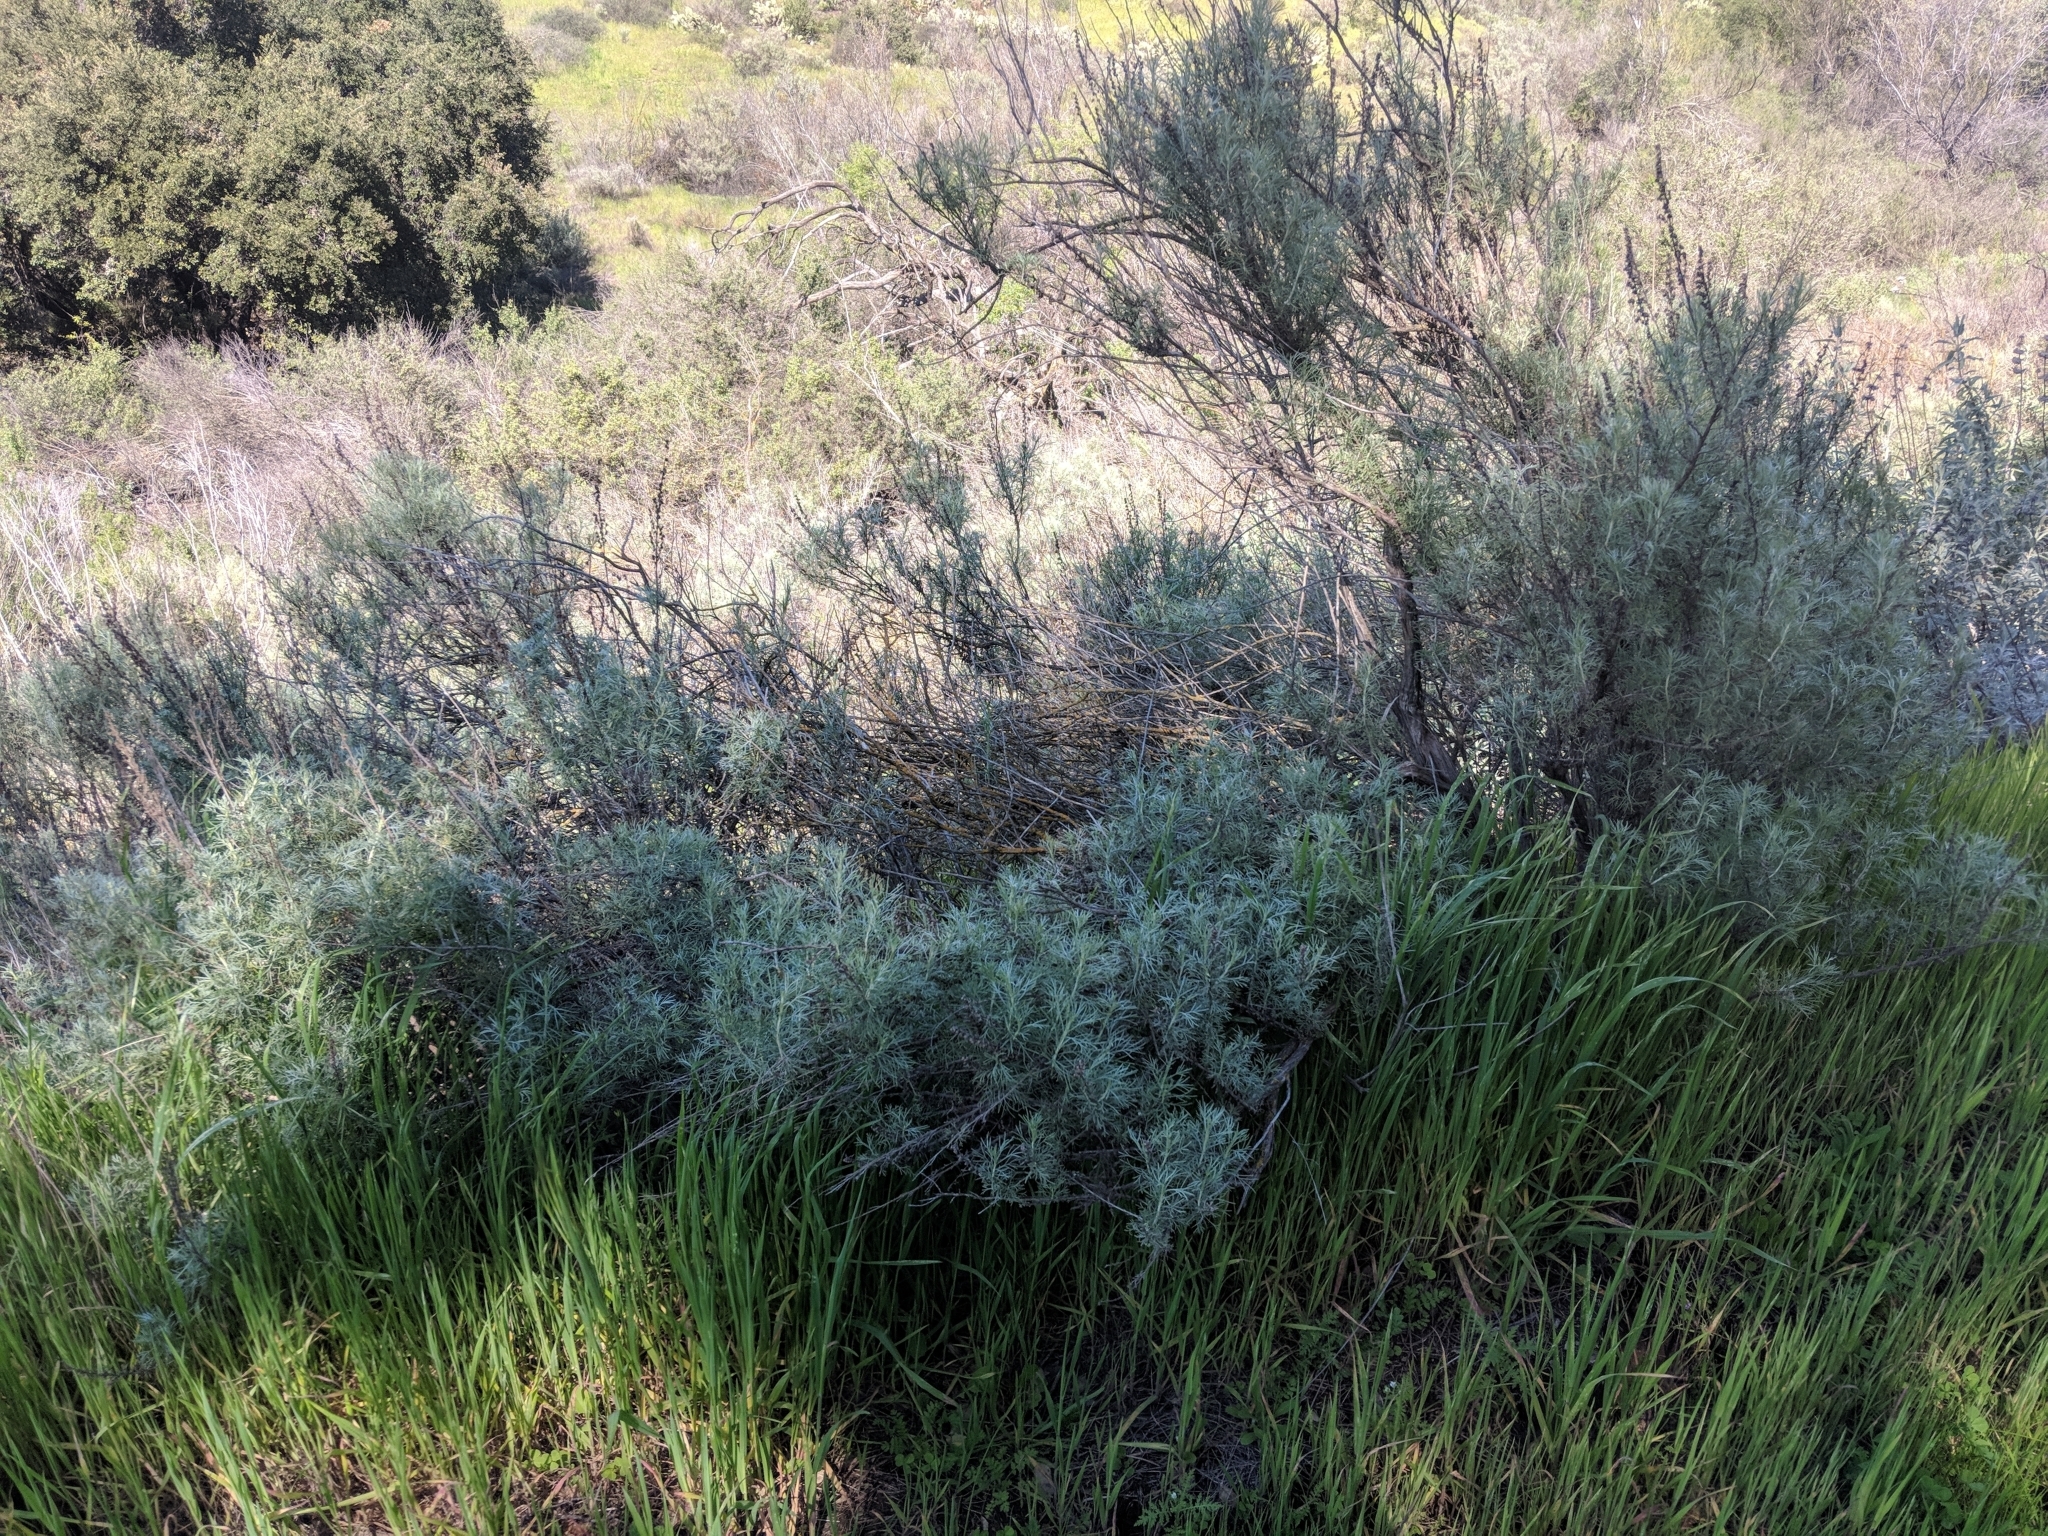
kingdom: Plantae
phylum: Tracheophyta
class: Magnoliopsida
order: Asterales
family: Asteraceae
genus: Artemisia
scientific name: Artemisia californica
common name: California sagebrush
